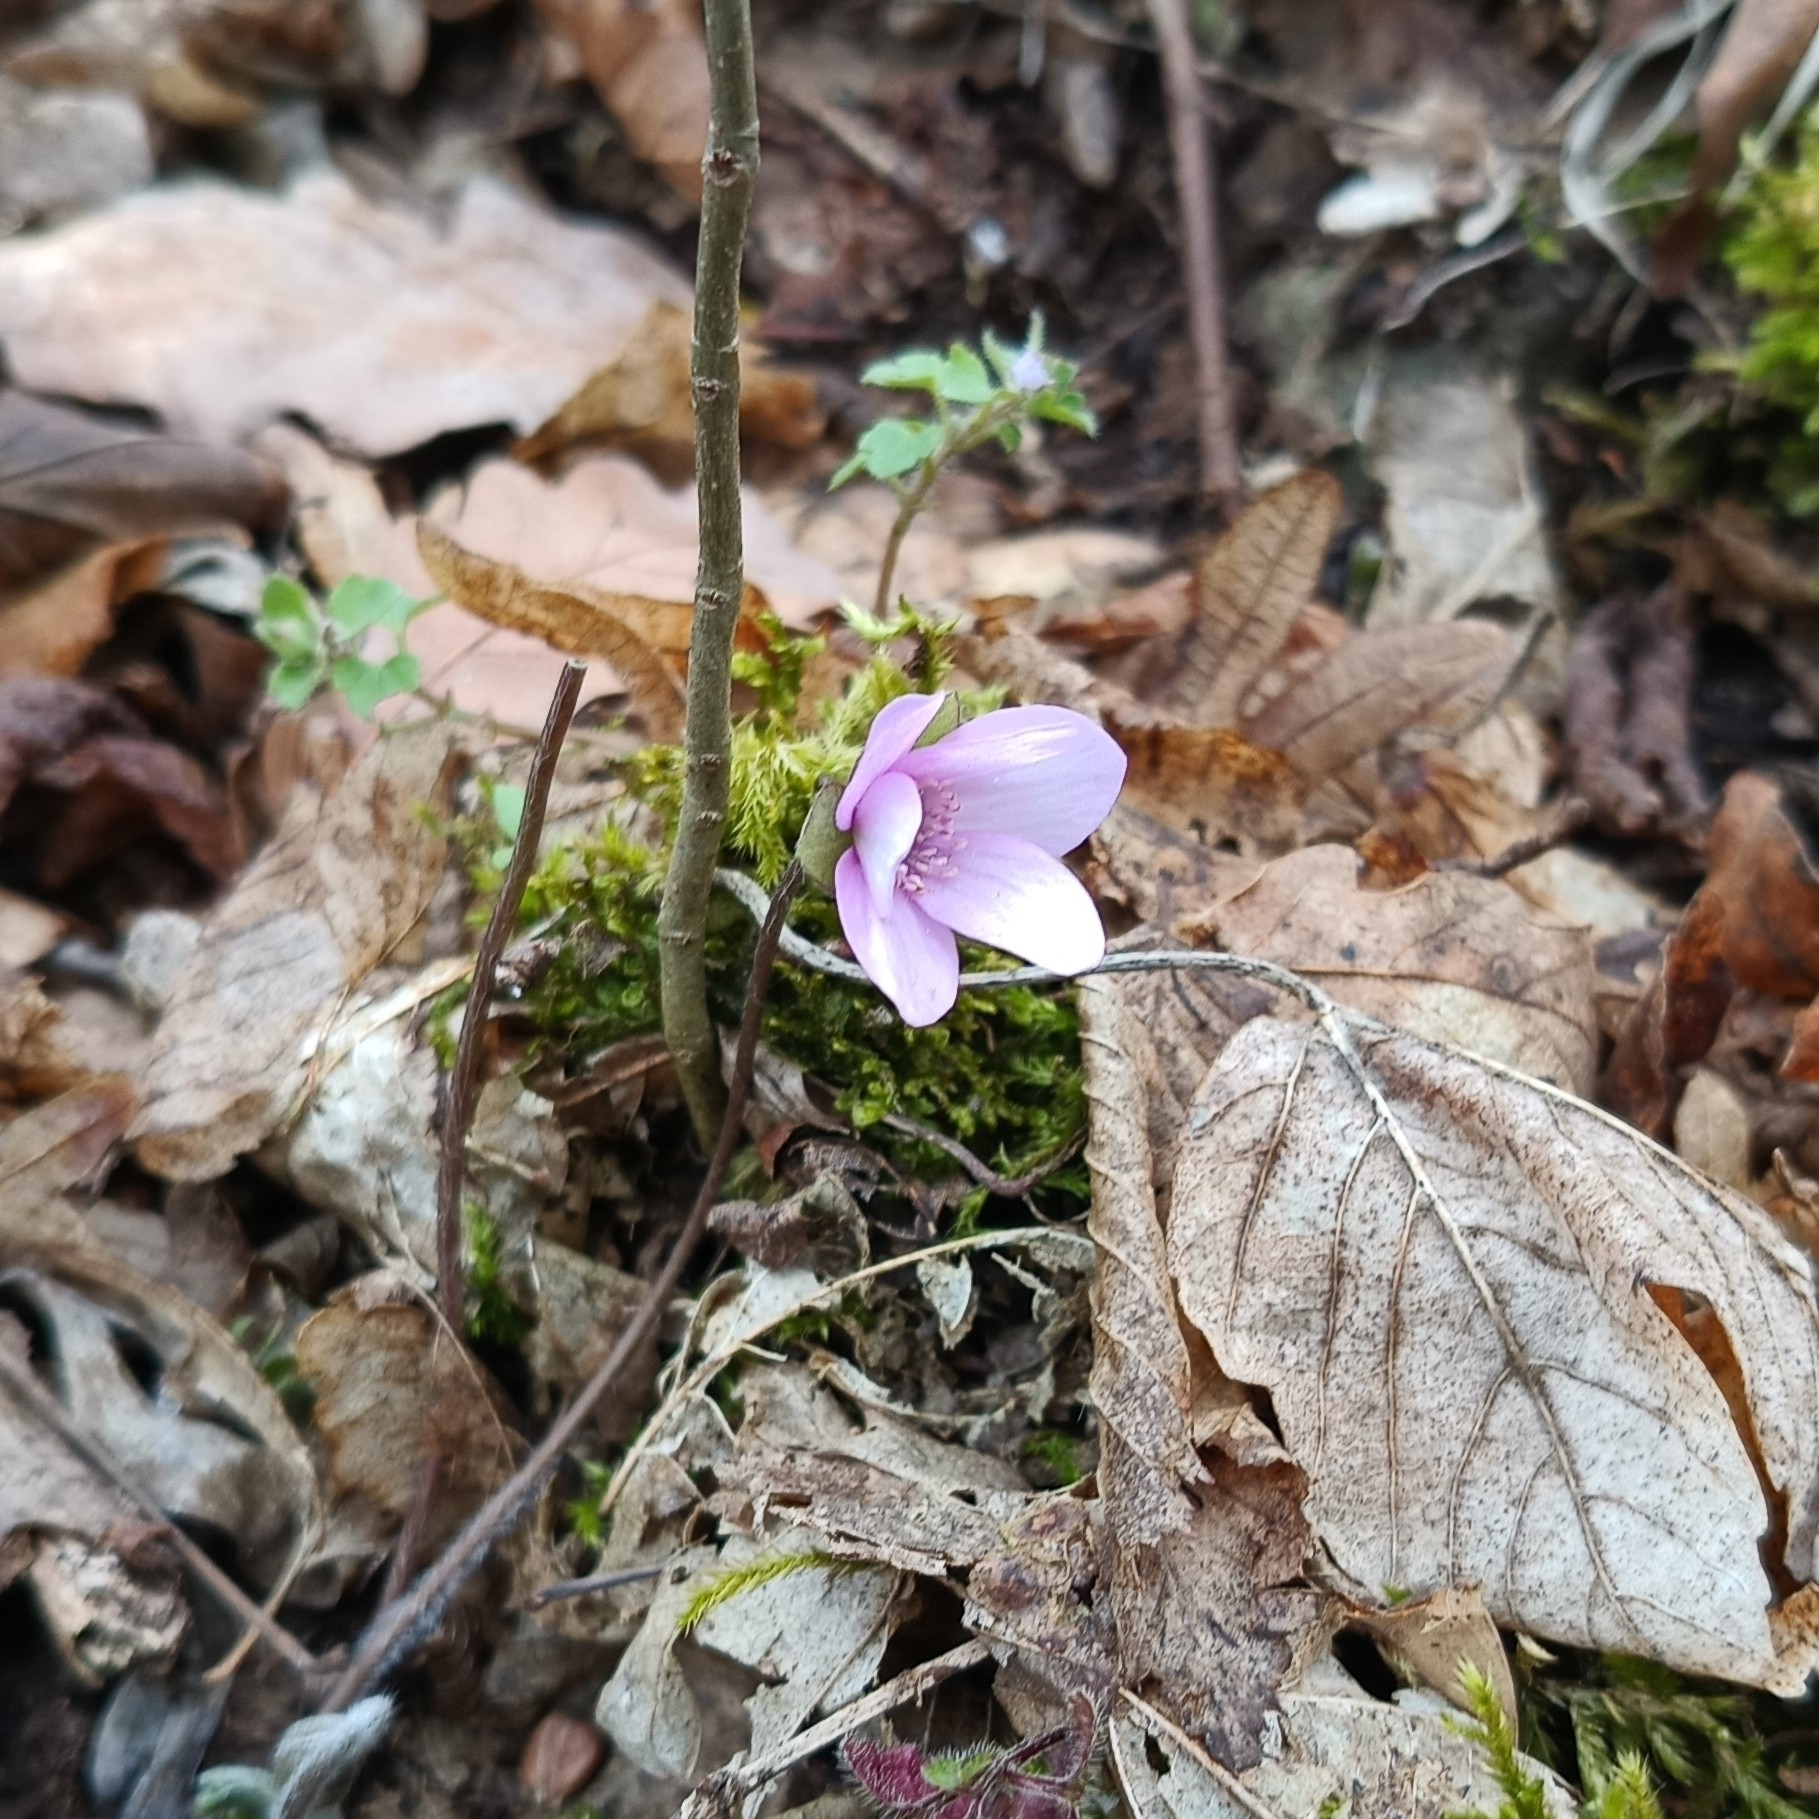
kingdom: Plantae
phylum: Tracheophyta
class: Magnoliopsida
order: Ranunculales
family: Ranunculaceae
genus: Hepatica
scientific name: Hepatica nobilis
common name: Liverleaf
